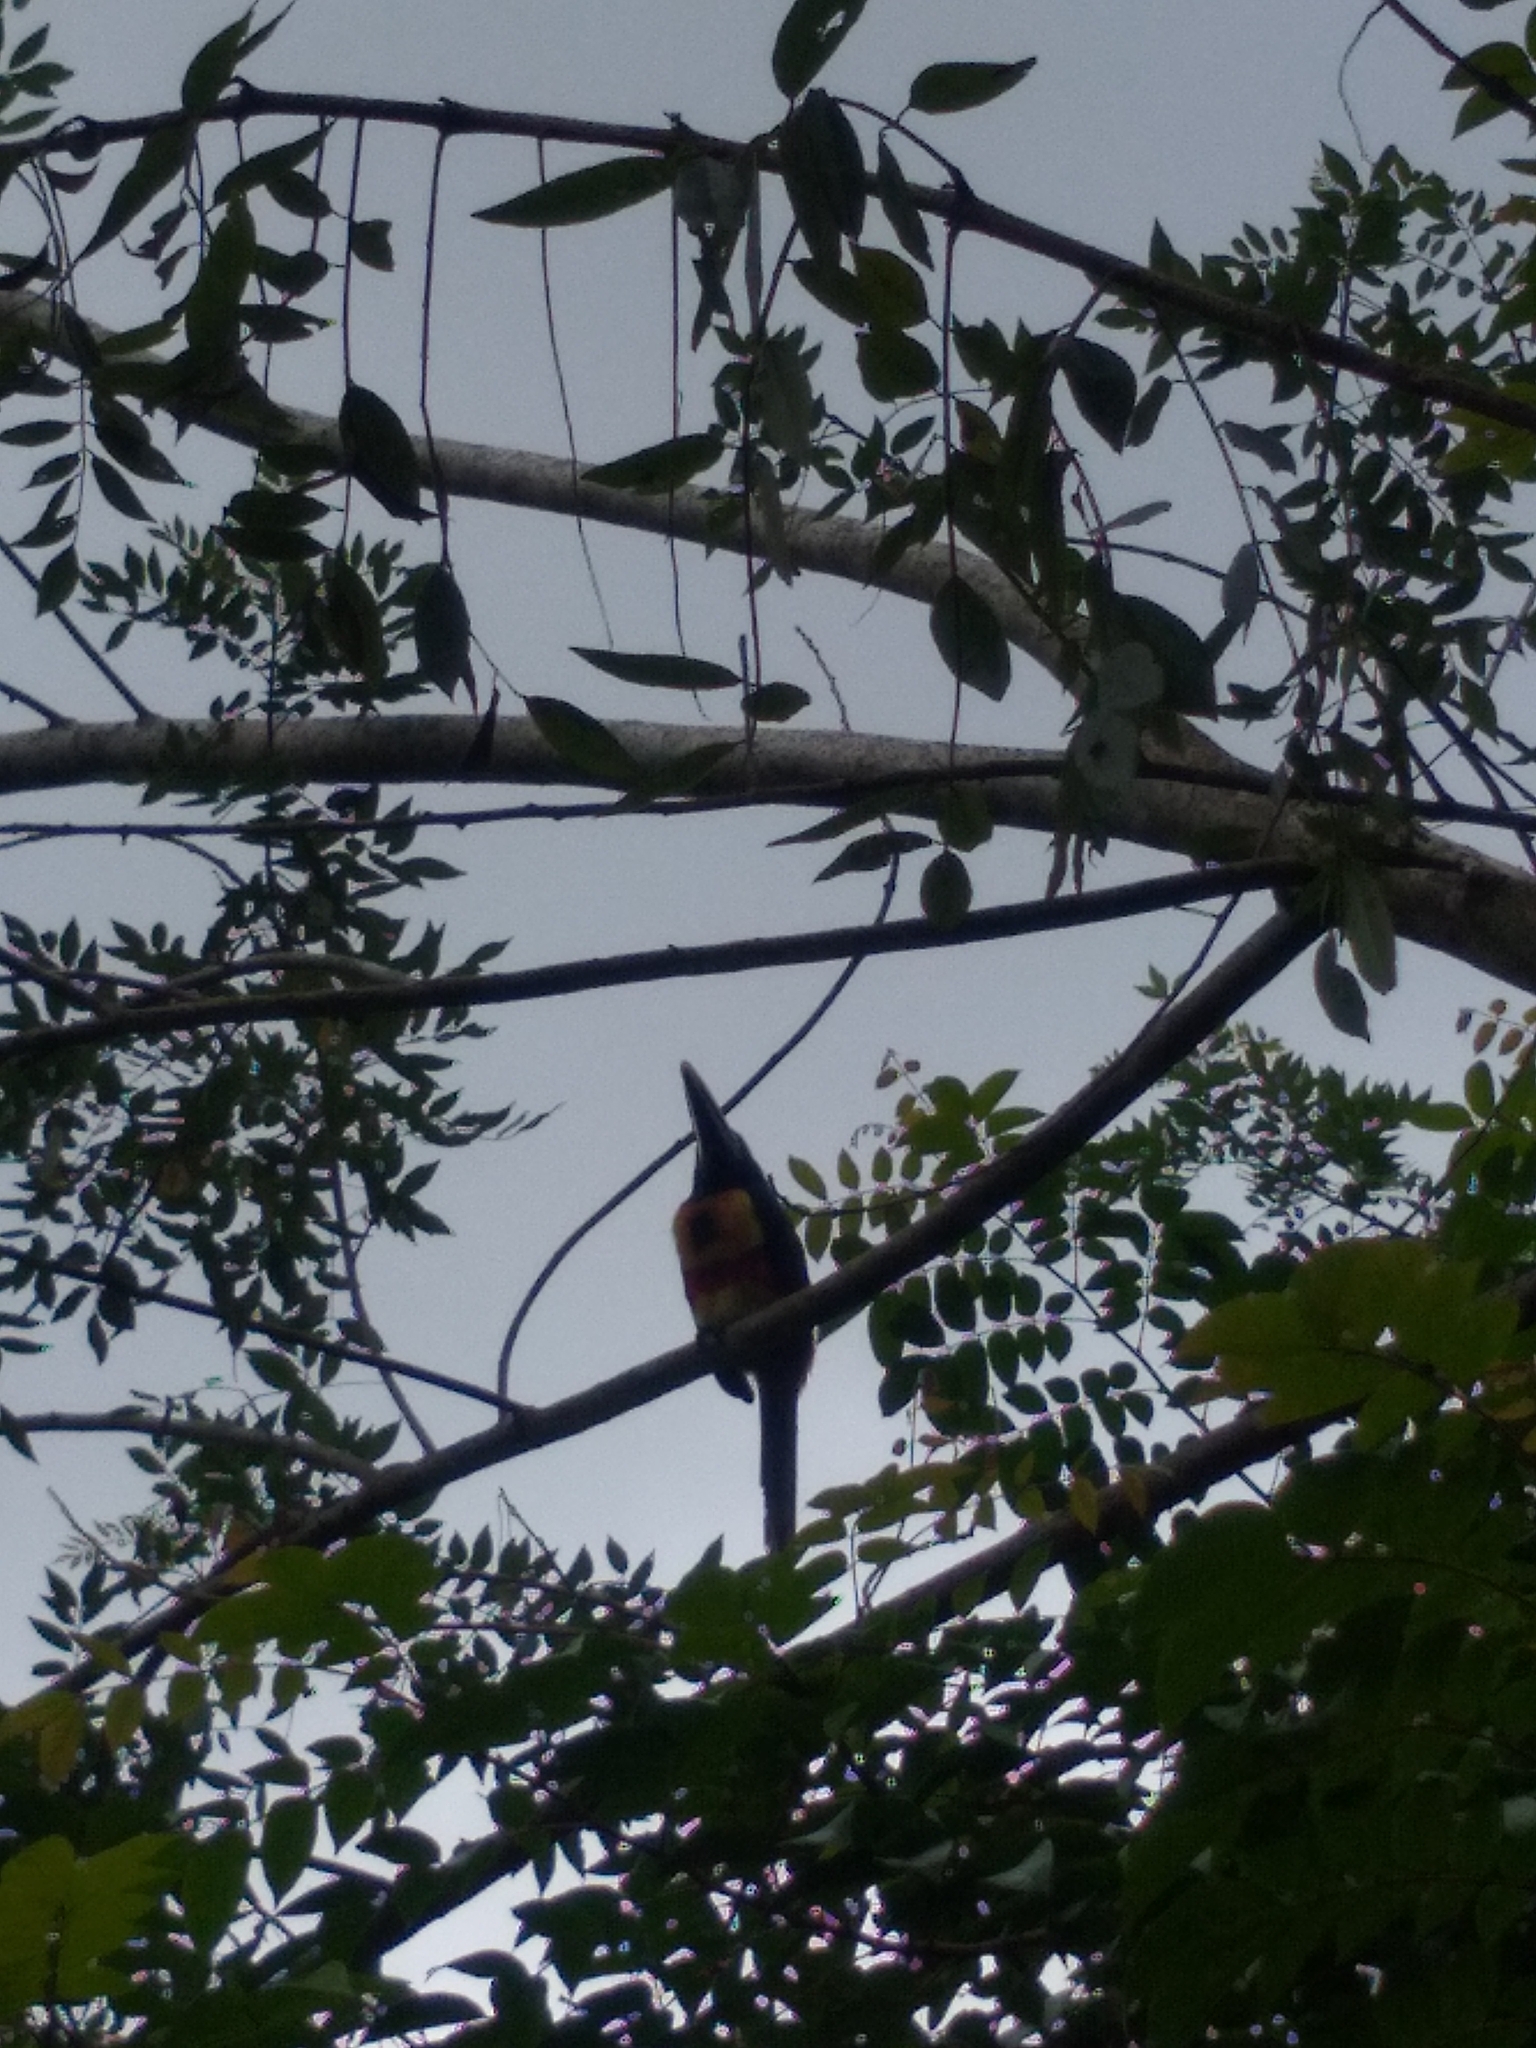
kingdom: Animalia
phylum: Chordata
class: Aves
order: Piciformes
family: Ramphastidae
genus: Pteroglossus
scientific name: Pteroglossus frantzii
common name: Fiery-billed aracari
